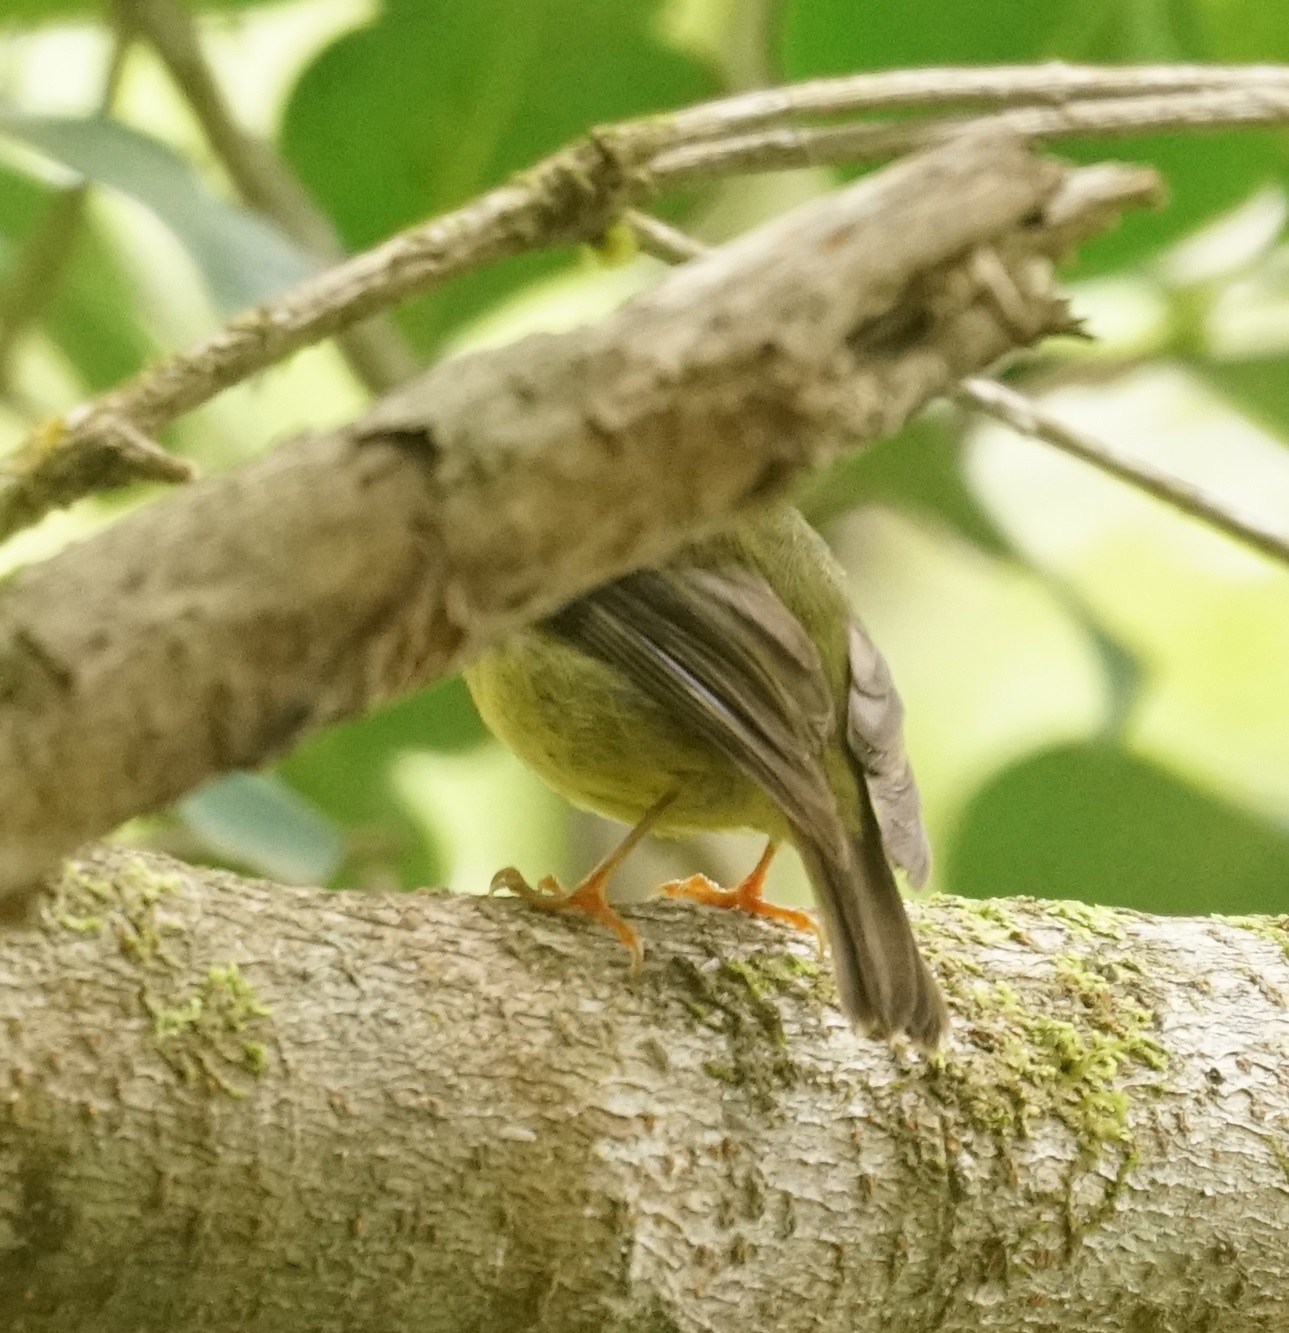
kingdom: Animalia
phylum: Chordata
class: Aves
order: Passeriformes
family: Petroicidae
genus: Eopsaltria
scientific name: Eopsaltria
